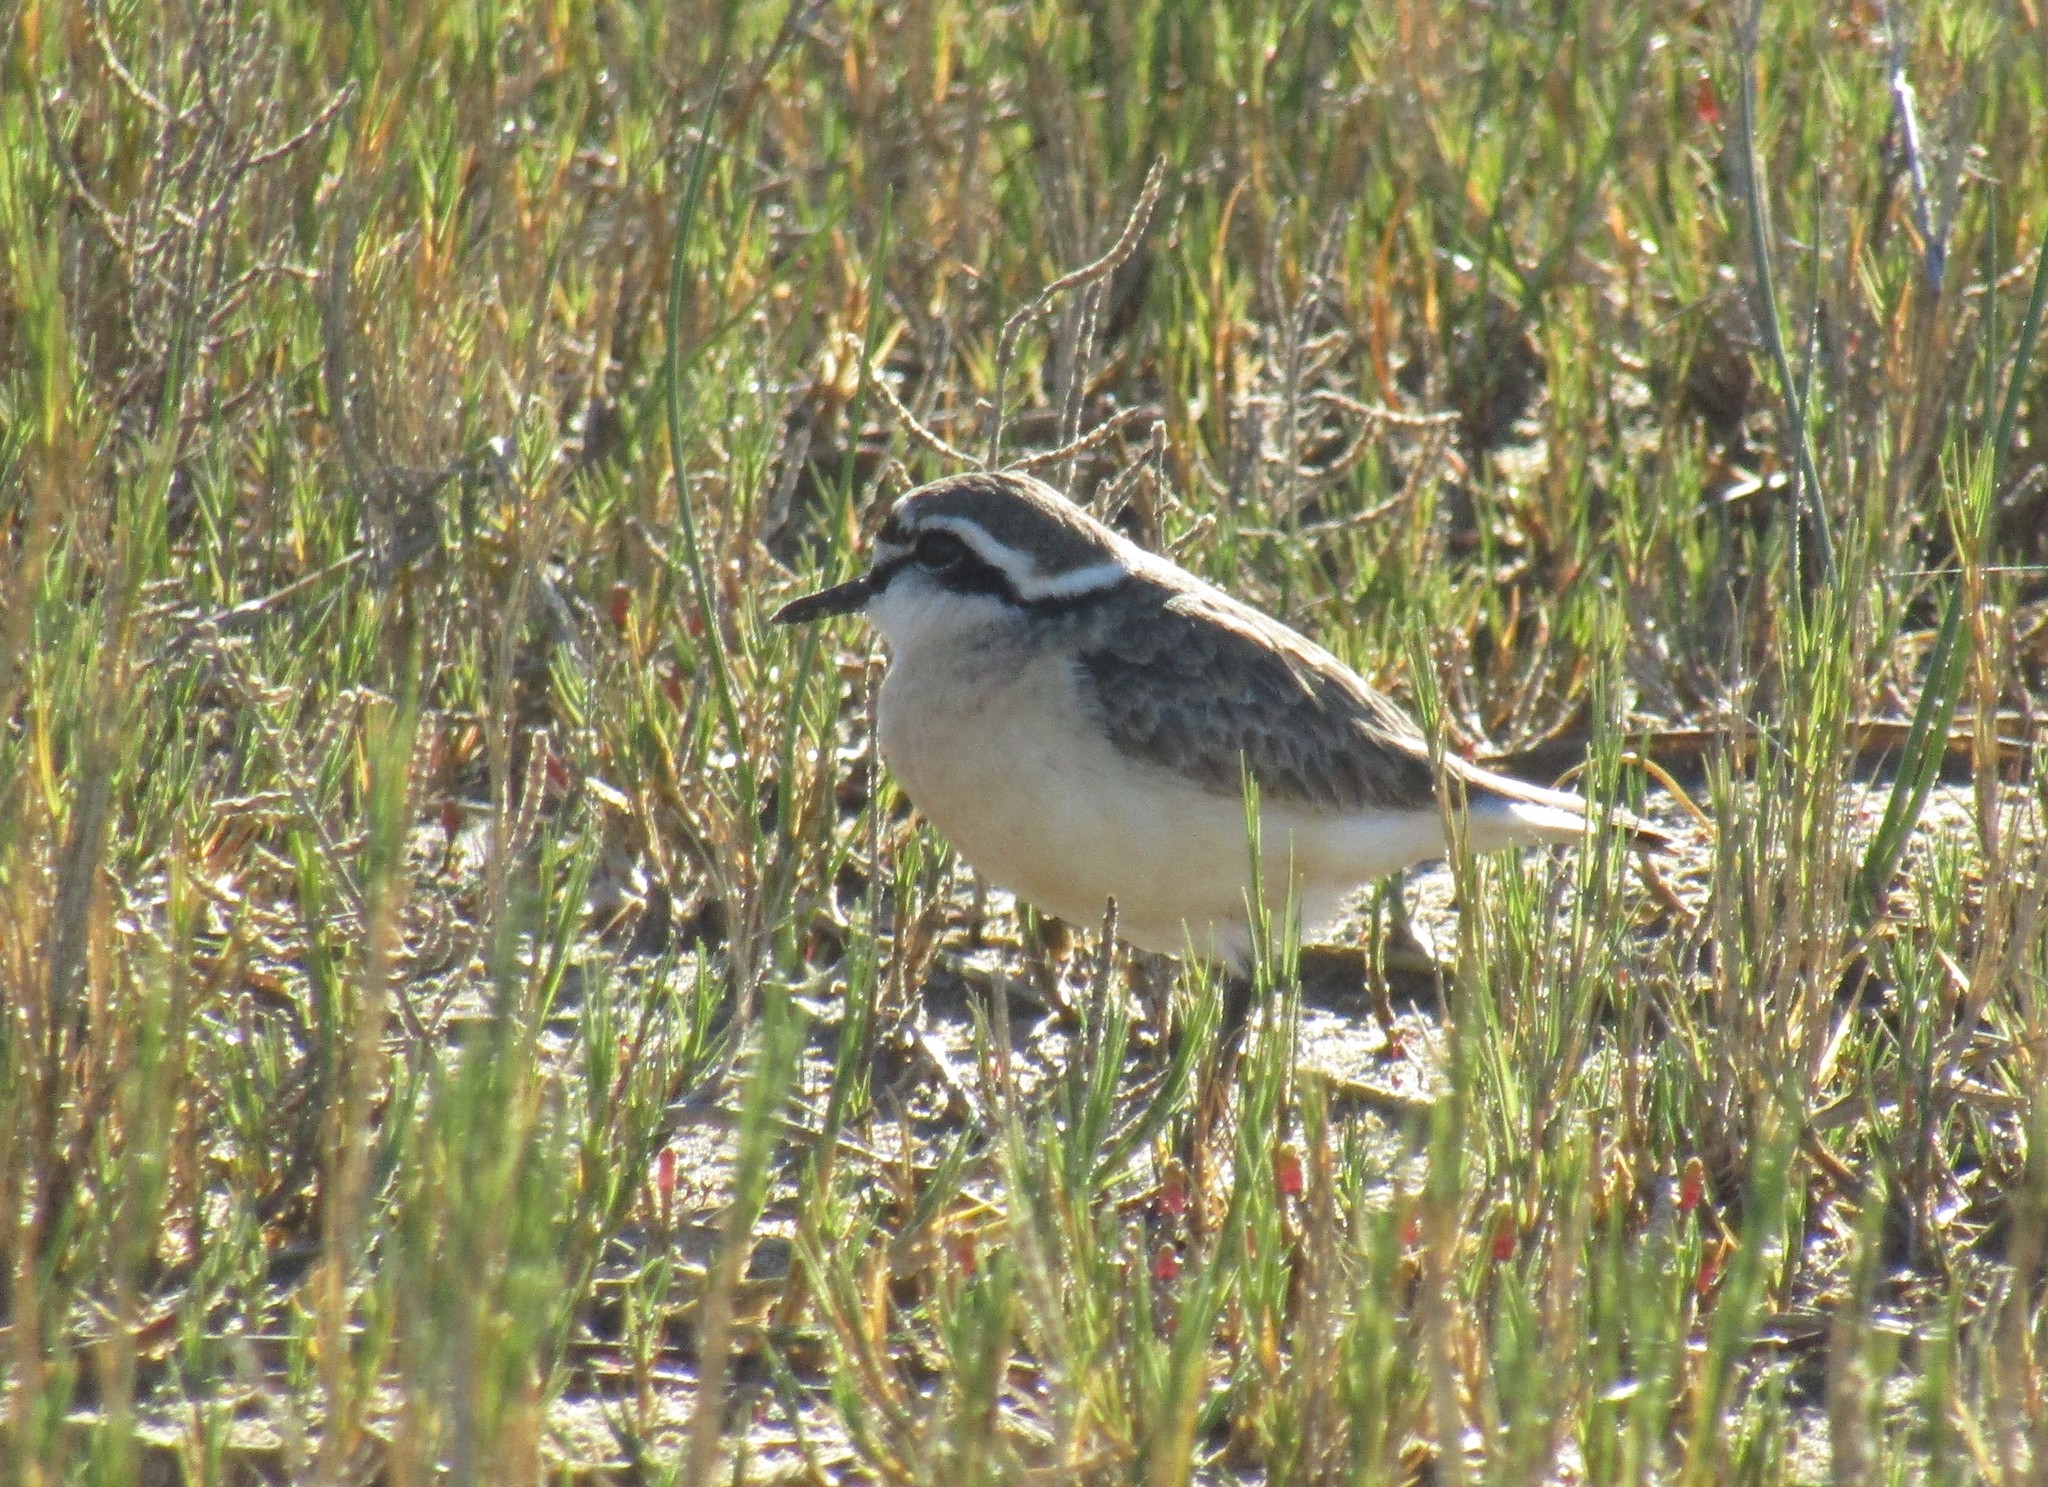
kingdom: Animalia
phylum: Chordata
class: Aves
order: Charadriiformes
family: Charadriidae
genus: Anarhynchus
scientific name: Anarhynchus
